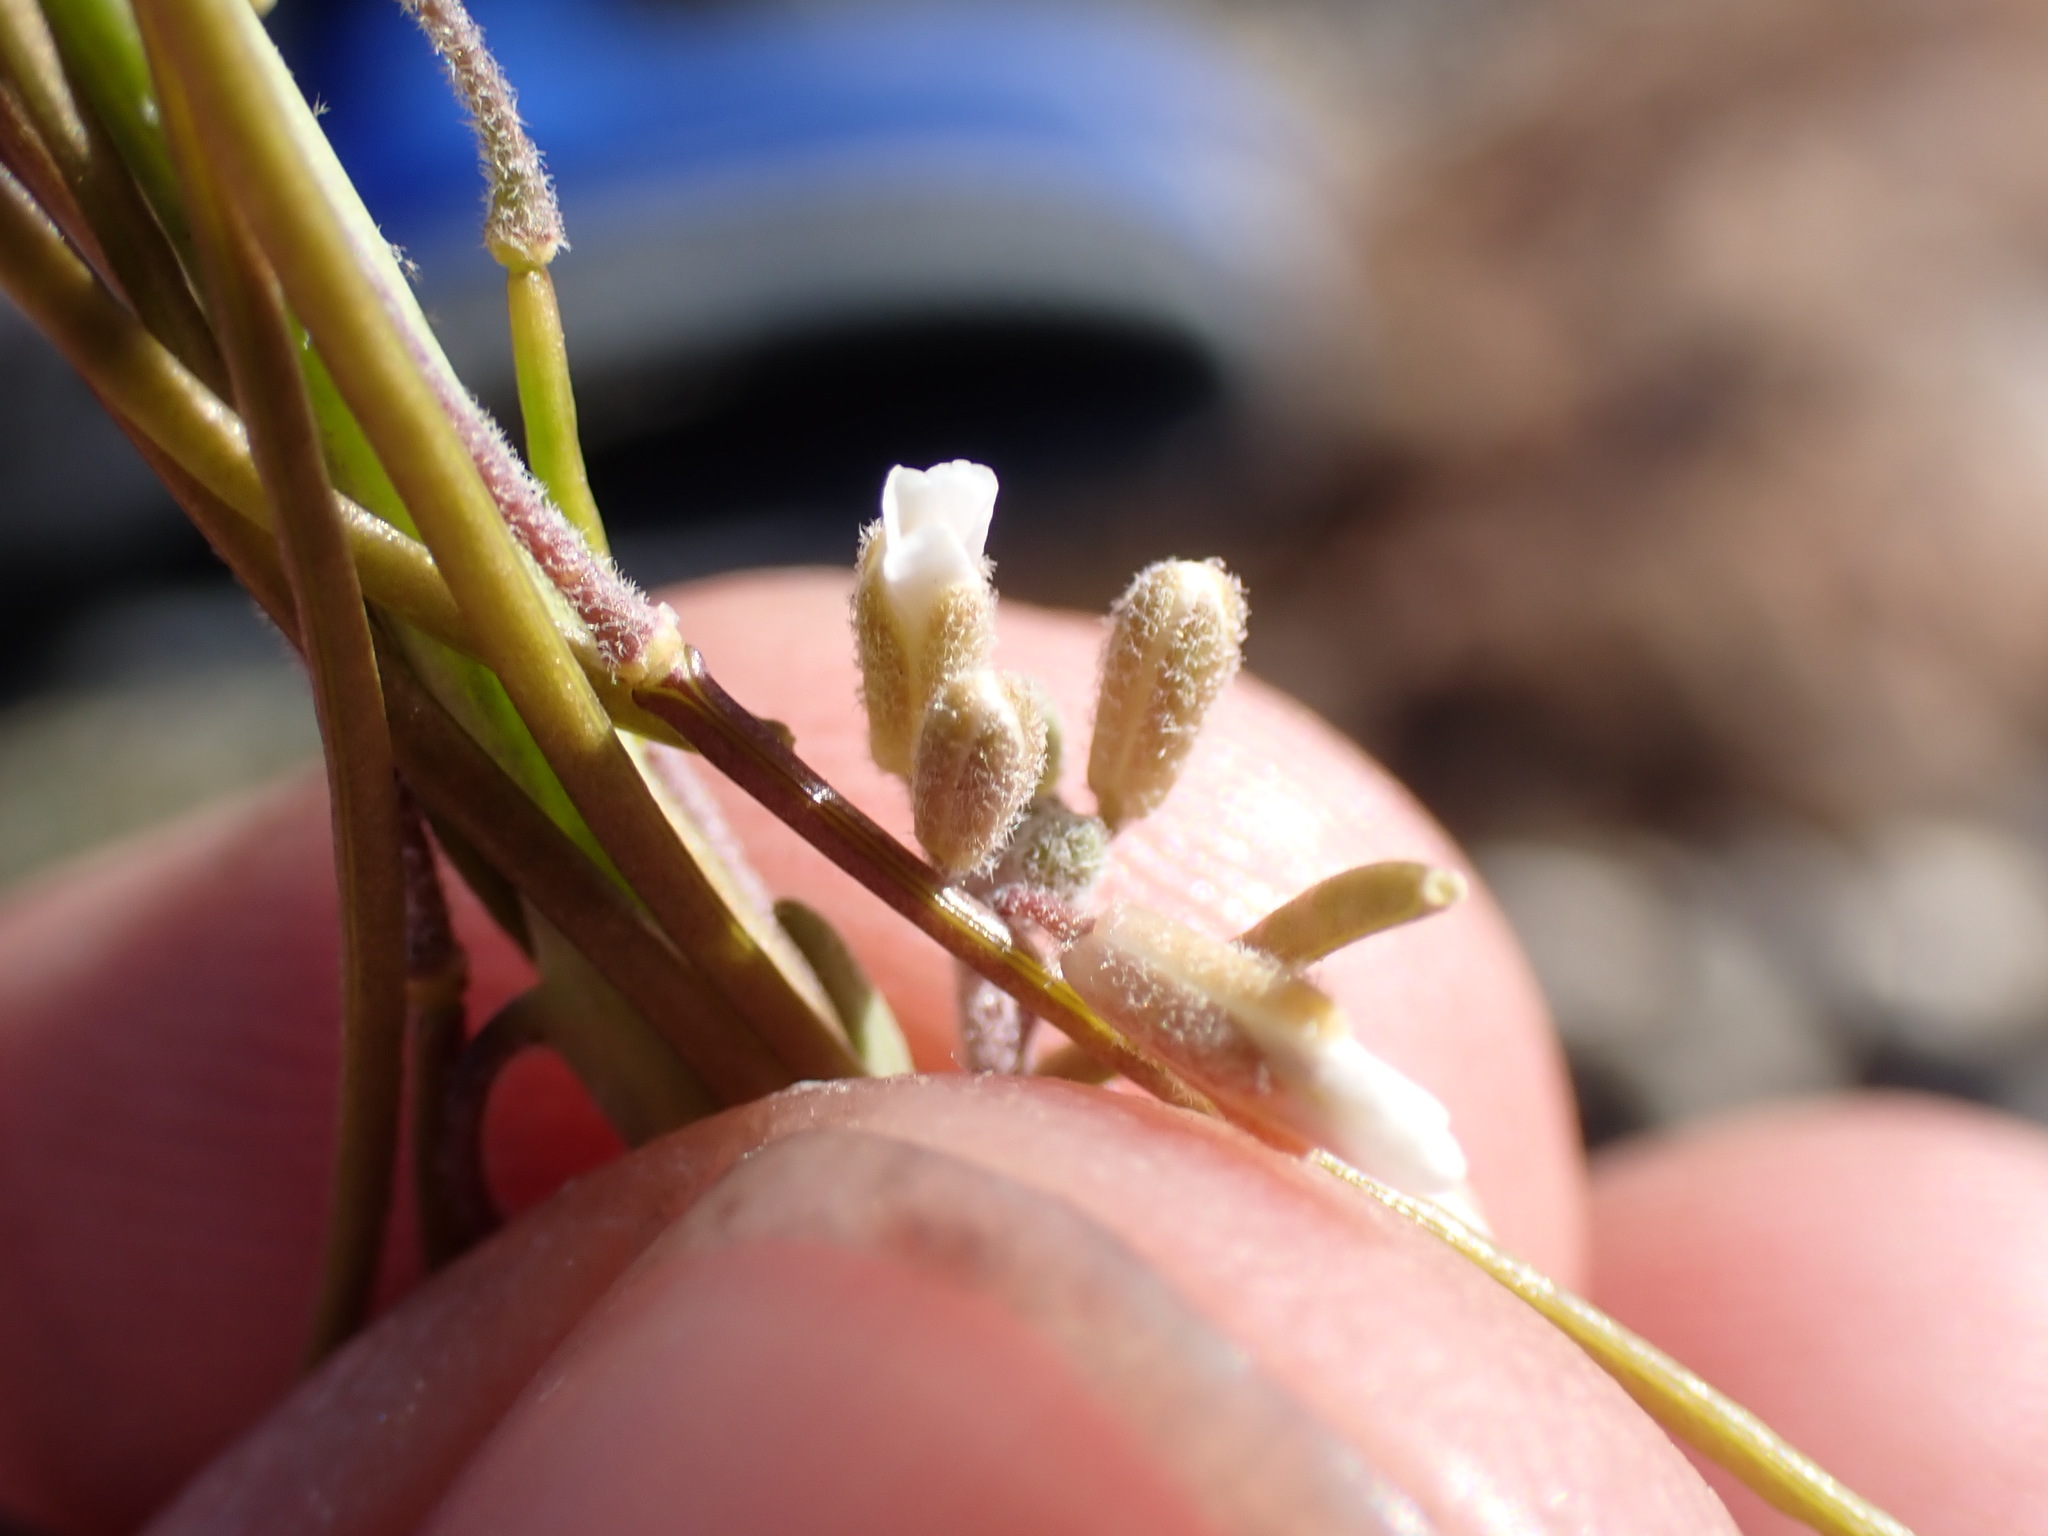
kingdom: Plantae
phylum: Tracheophyta
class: Magnoliopsida
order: Brassicales
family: Brassicaceae
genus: Boechera
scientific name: Boechera retrofracta
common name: Dangling suncress
